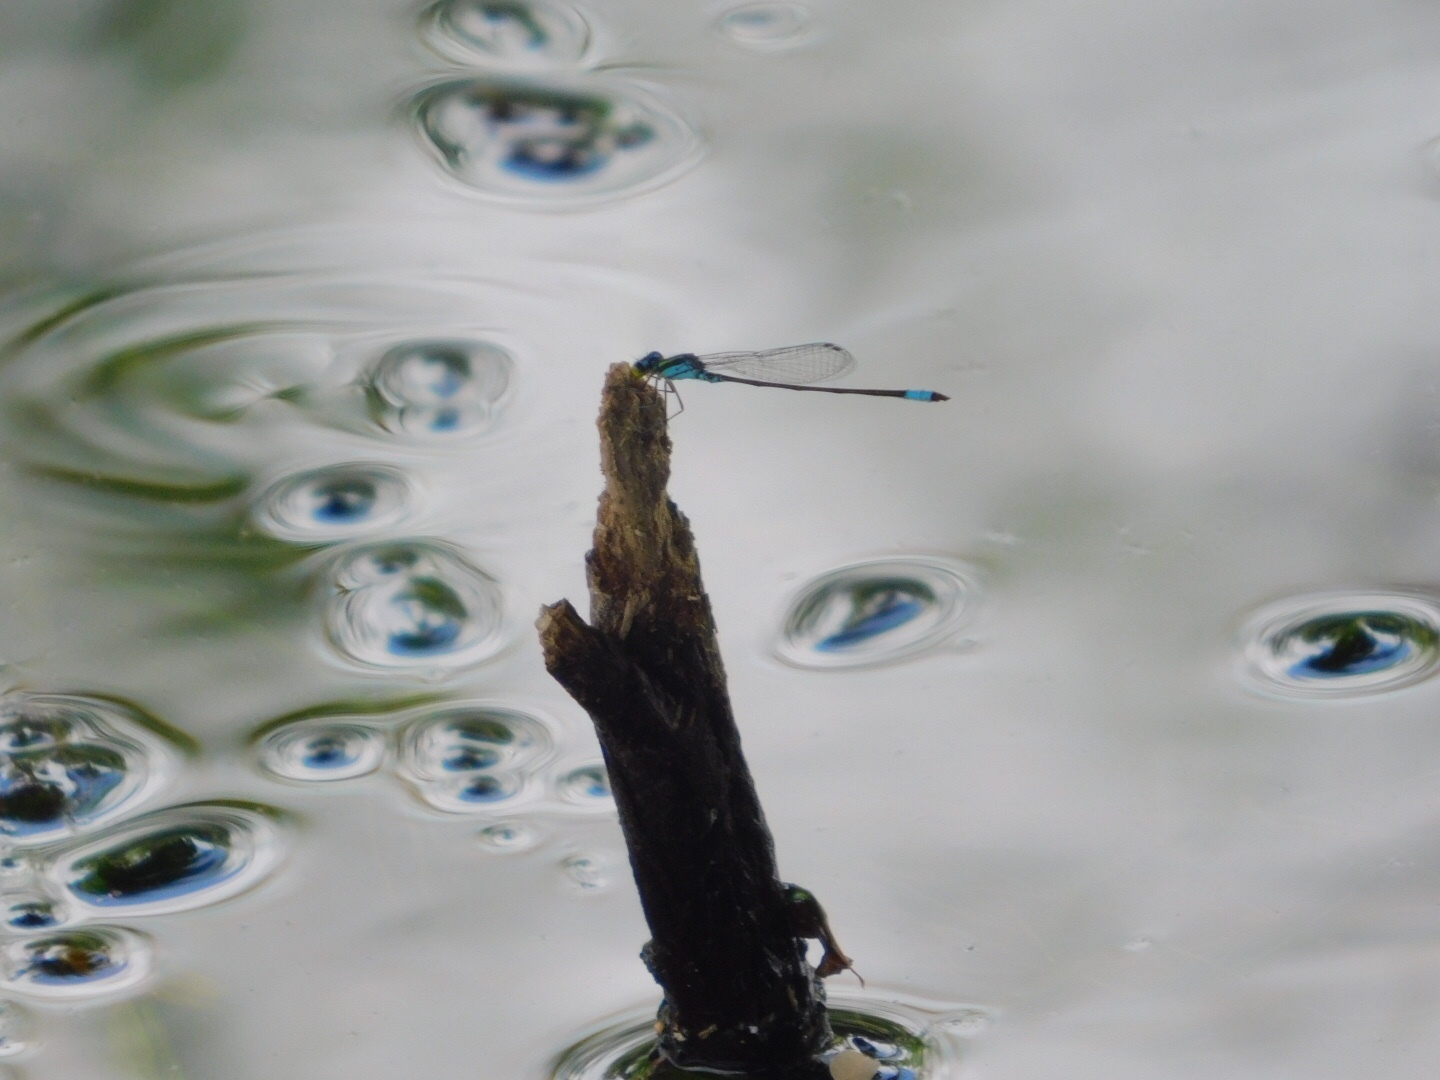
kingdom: Animalia
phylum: Arthropoda
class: Insecta
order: Odonata
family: Coenagrionidae
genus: Neoerythromma
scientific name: Neoerythromma cultellatum
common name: Caribbean yellowface
